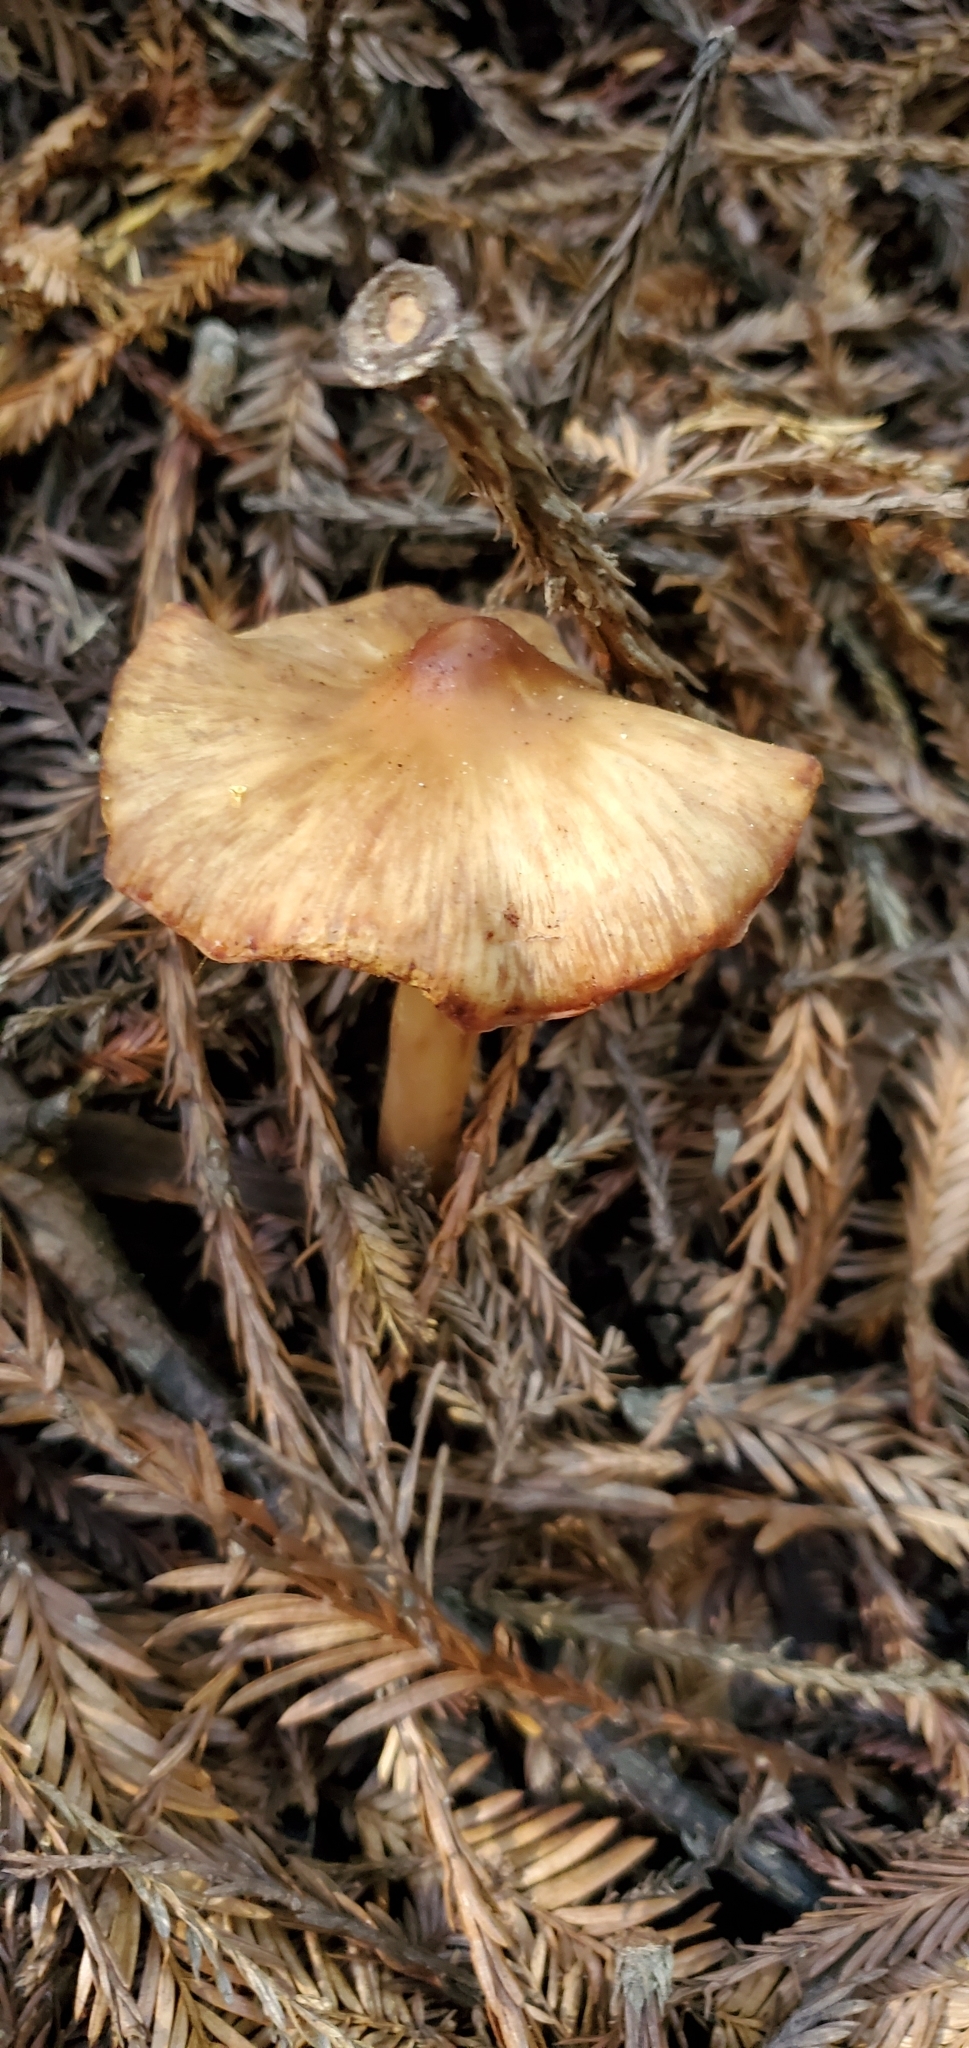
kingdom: Fungi
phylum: Basidiomycota
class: Agaricomycetes
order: Agaricales
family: Tricholomataceae
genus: Caulorhiza
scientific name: Caulorhiza umbonata
